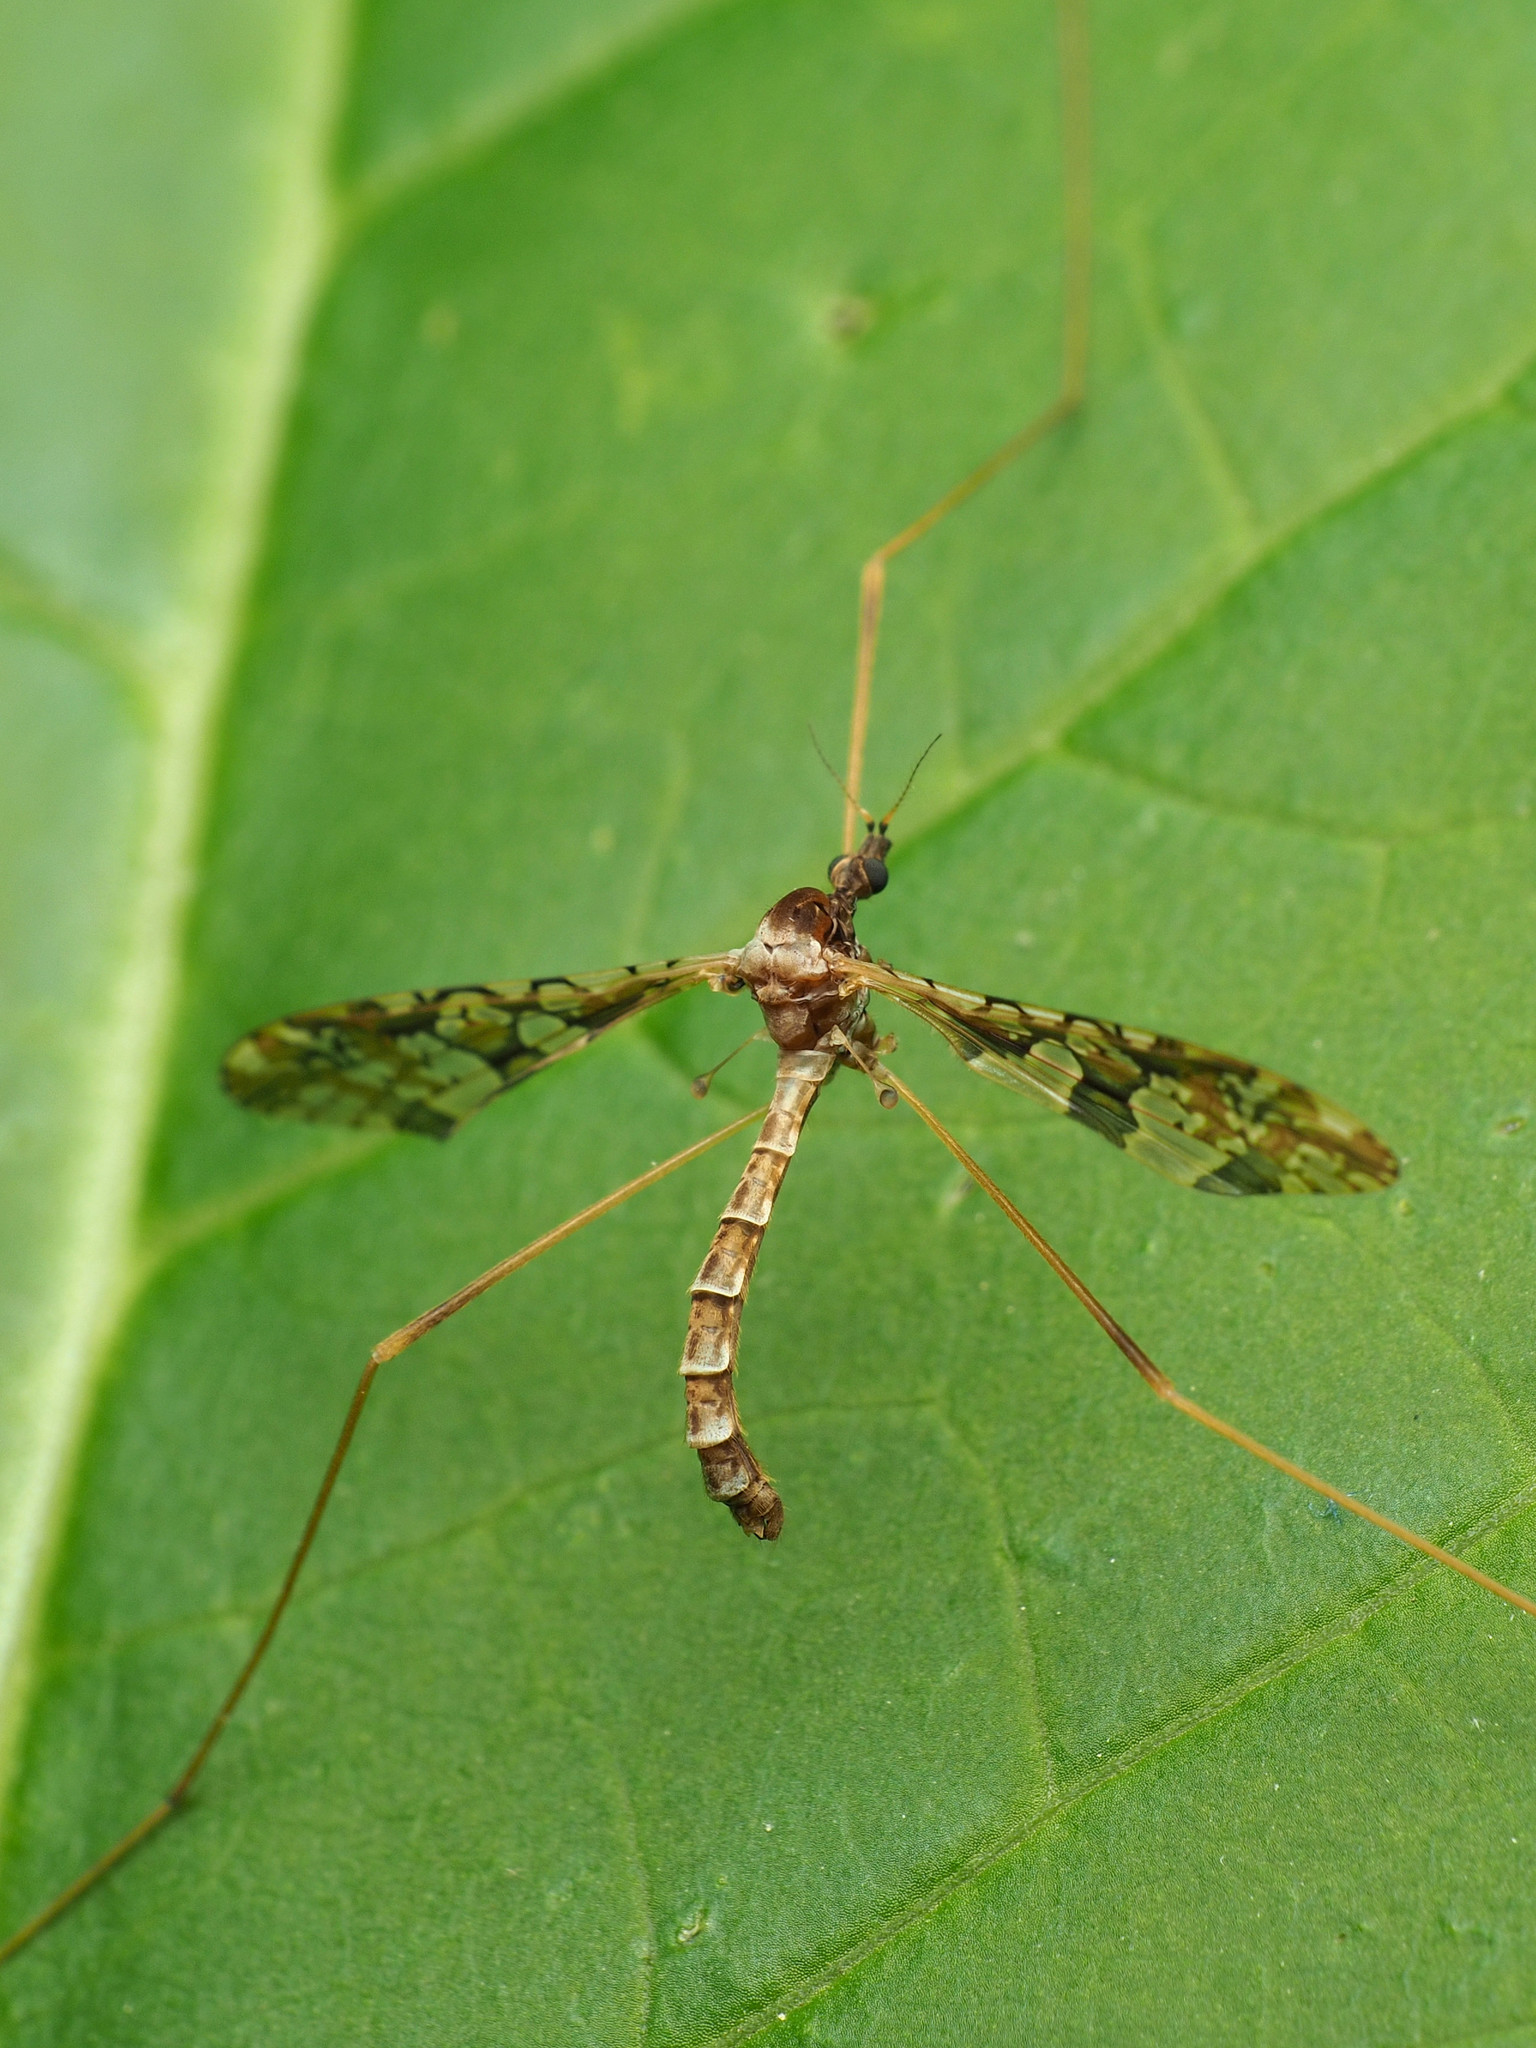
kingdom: Animalia
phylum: Arthropoda
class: Insecta
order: Diptera
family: Limoniidae
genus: Epiphragma
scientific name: Epiphragma solatrix
